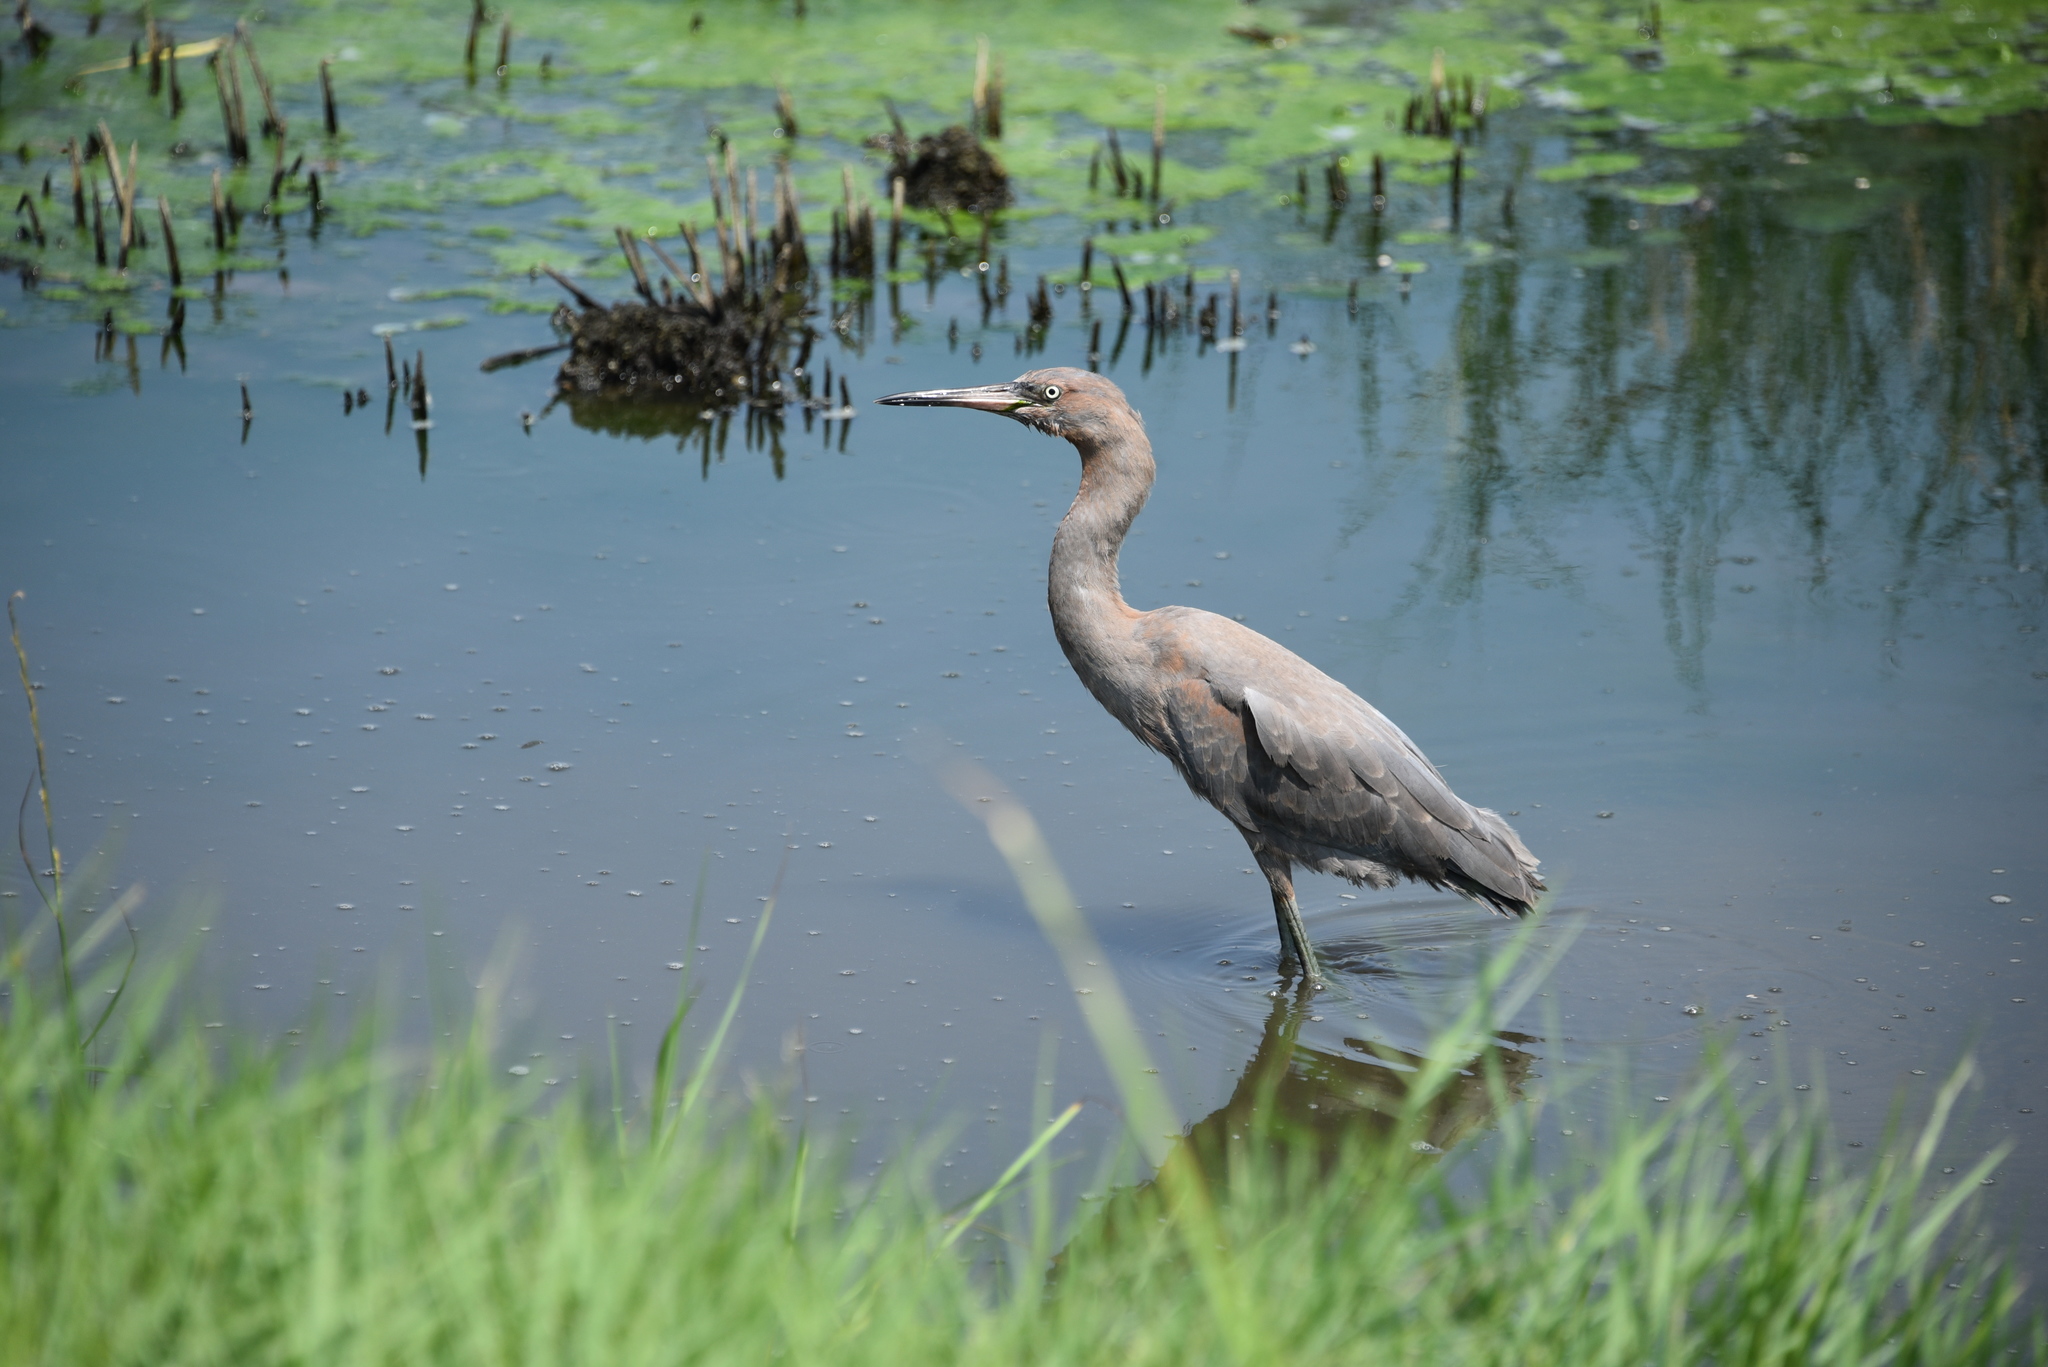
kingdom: Animalia
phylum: Chordata
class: Aves
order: Pelecaniformes
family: Ardeidae
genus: Egretta
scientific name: Egretta rufescens
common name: Reddish egret
